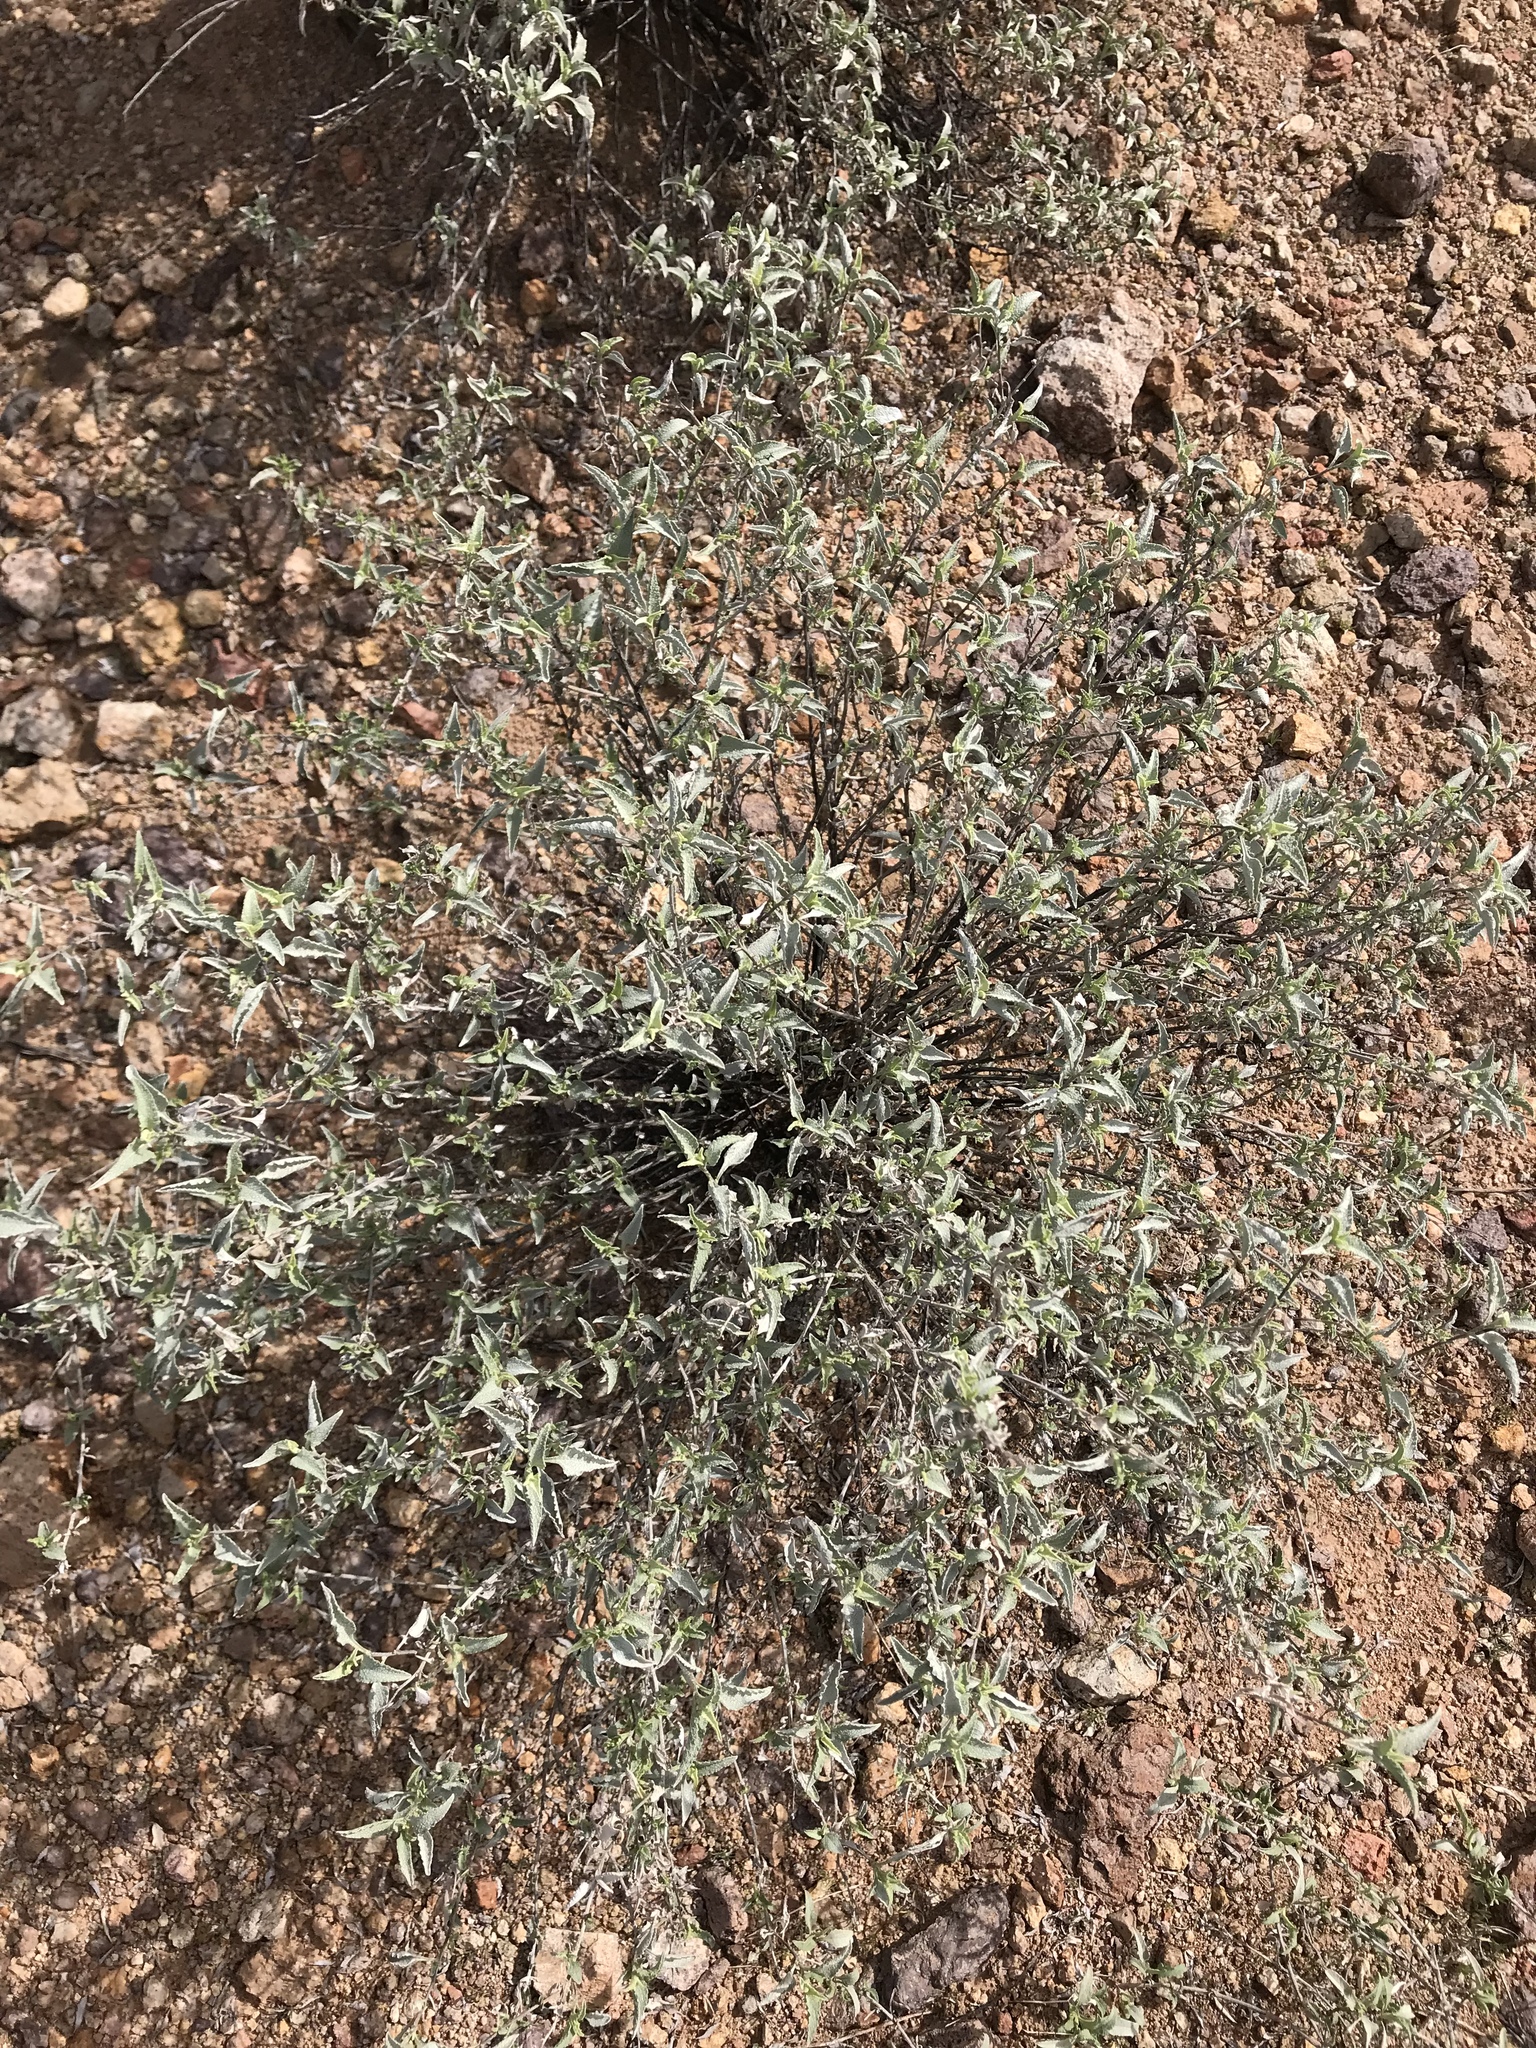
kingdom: Plantae
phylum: Tracheophyta
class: Magnoliopsida
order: Asterales
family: Asteraceae
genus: Ambrosia
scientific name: Ambrosia deltoidea
